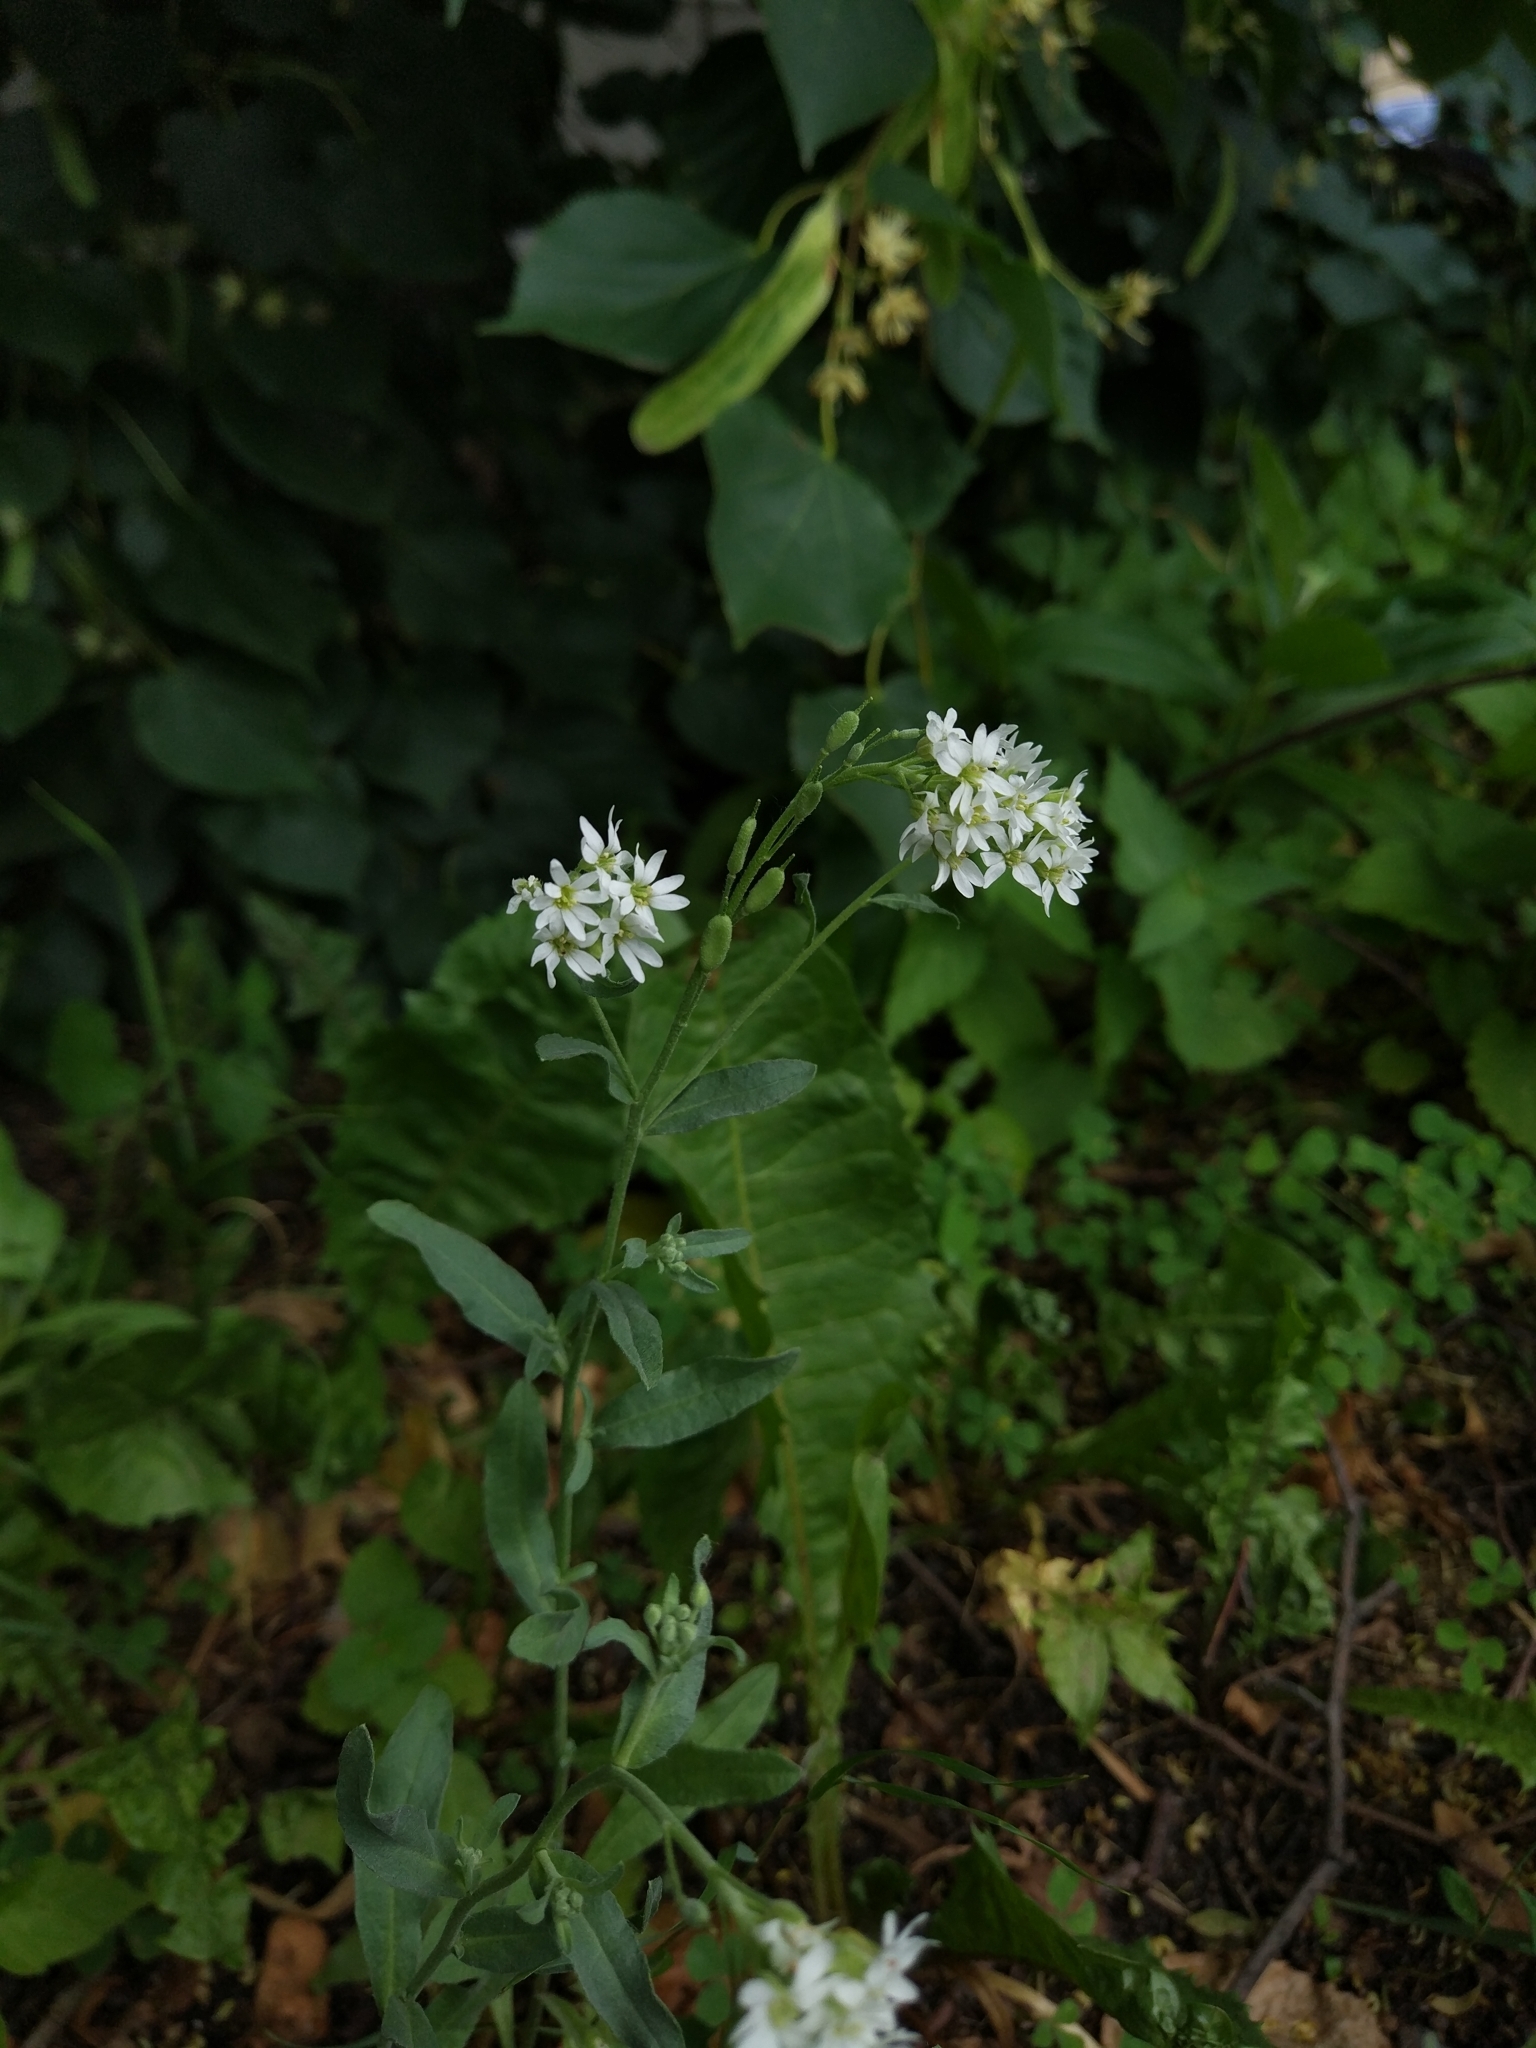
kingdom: Plantae
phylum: Tracheophyta
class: Magnoliopsida
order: Brassicales
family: Brassicaceae
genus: Berteroa
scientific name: Berteroa incana
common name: Hoary alison
